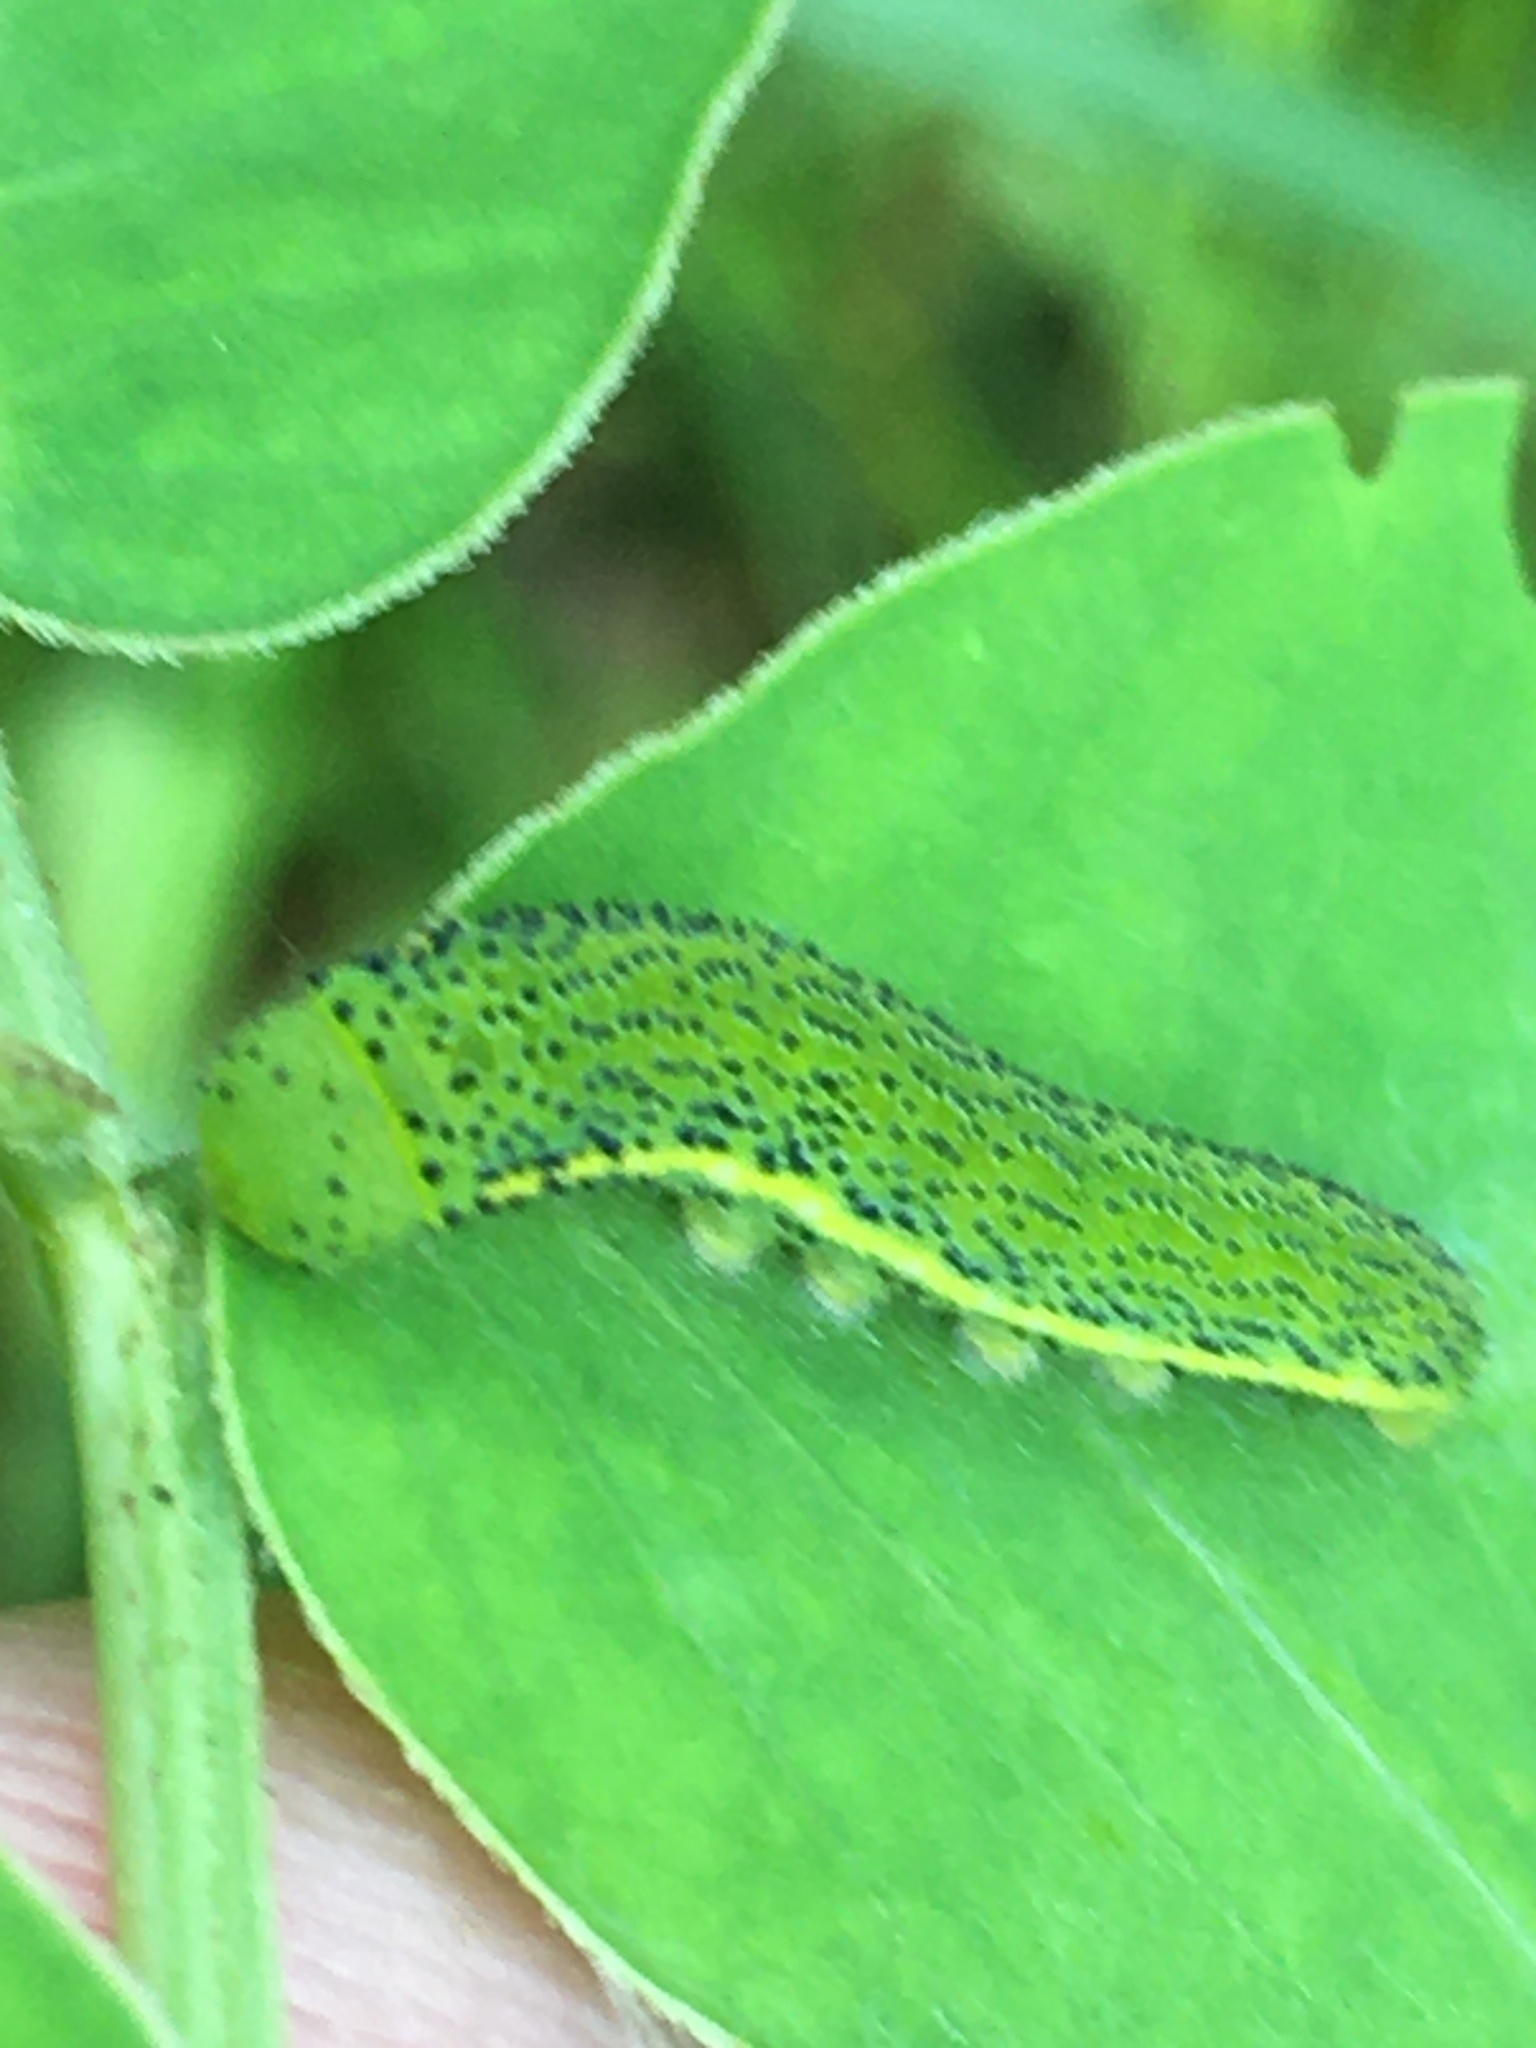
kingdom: Animalia
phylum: Arthropoda
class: Insecta
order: Lepidoptera
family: Pieridae
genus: Phoebis
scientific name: Phoebis sennae
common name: Cloudless sulphur
